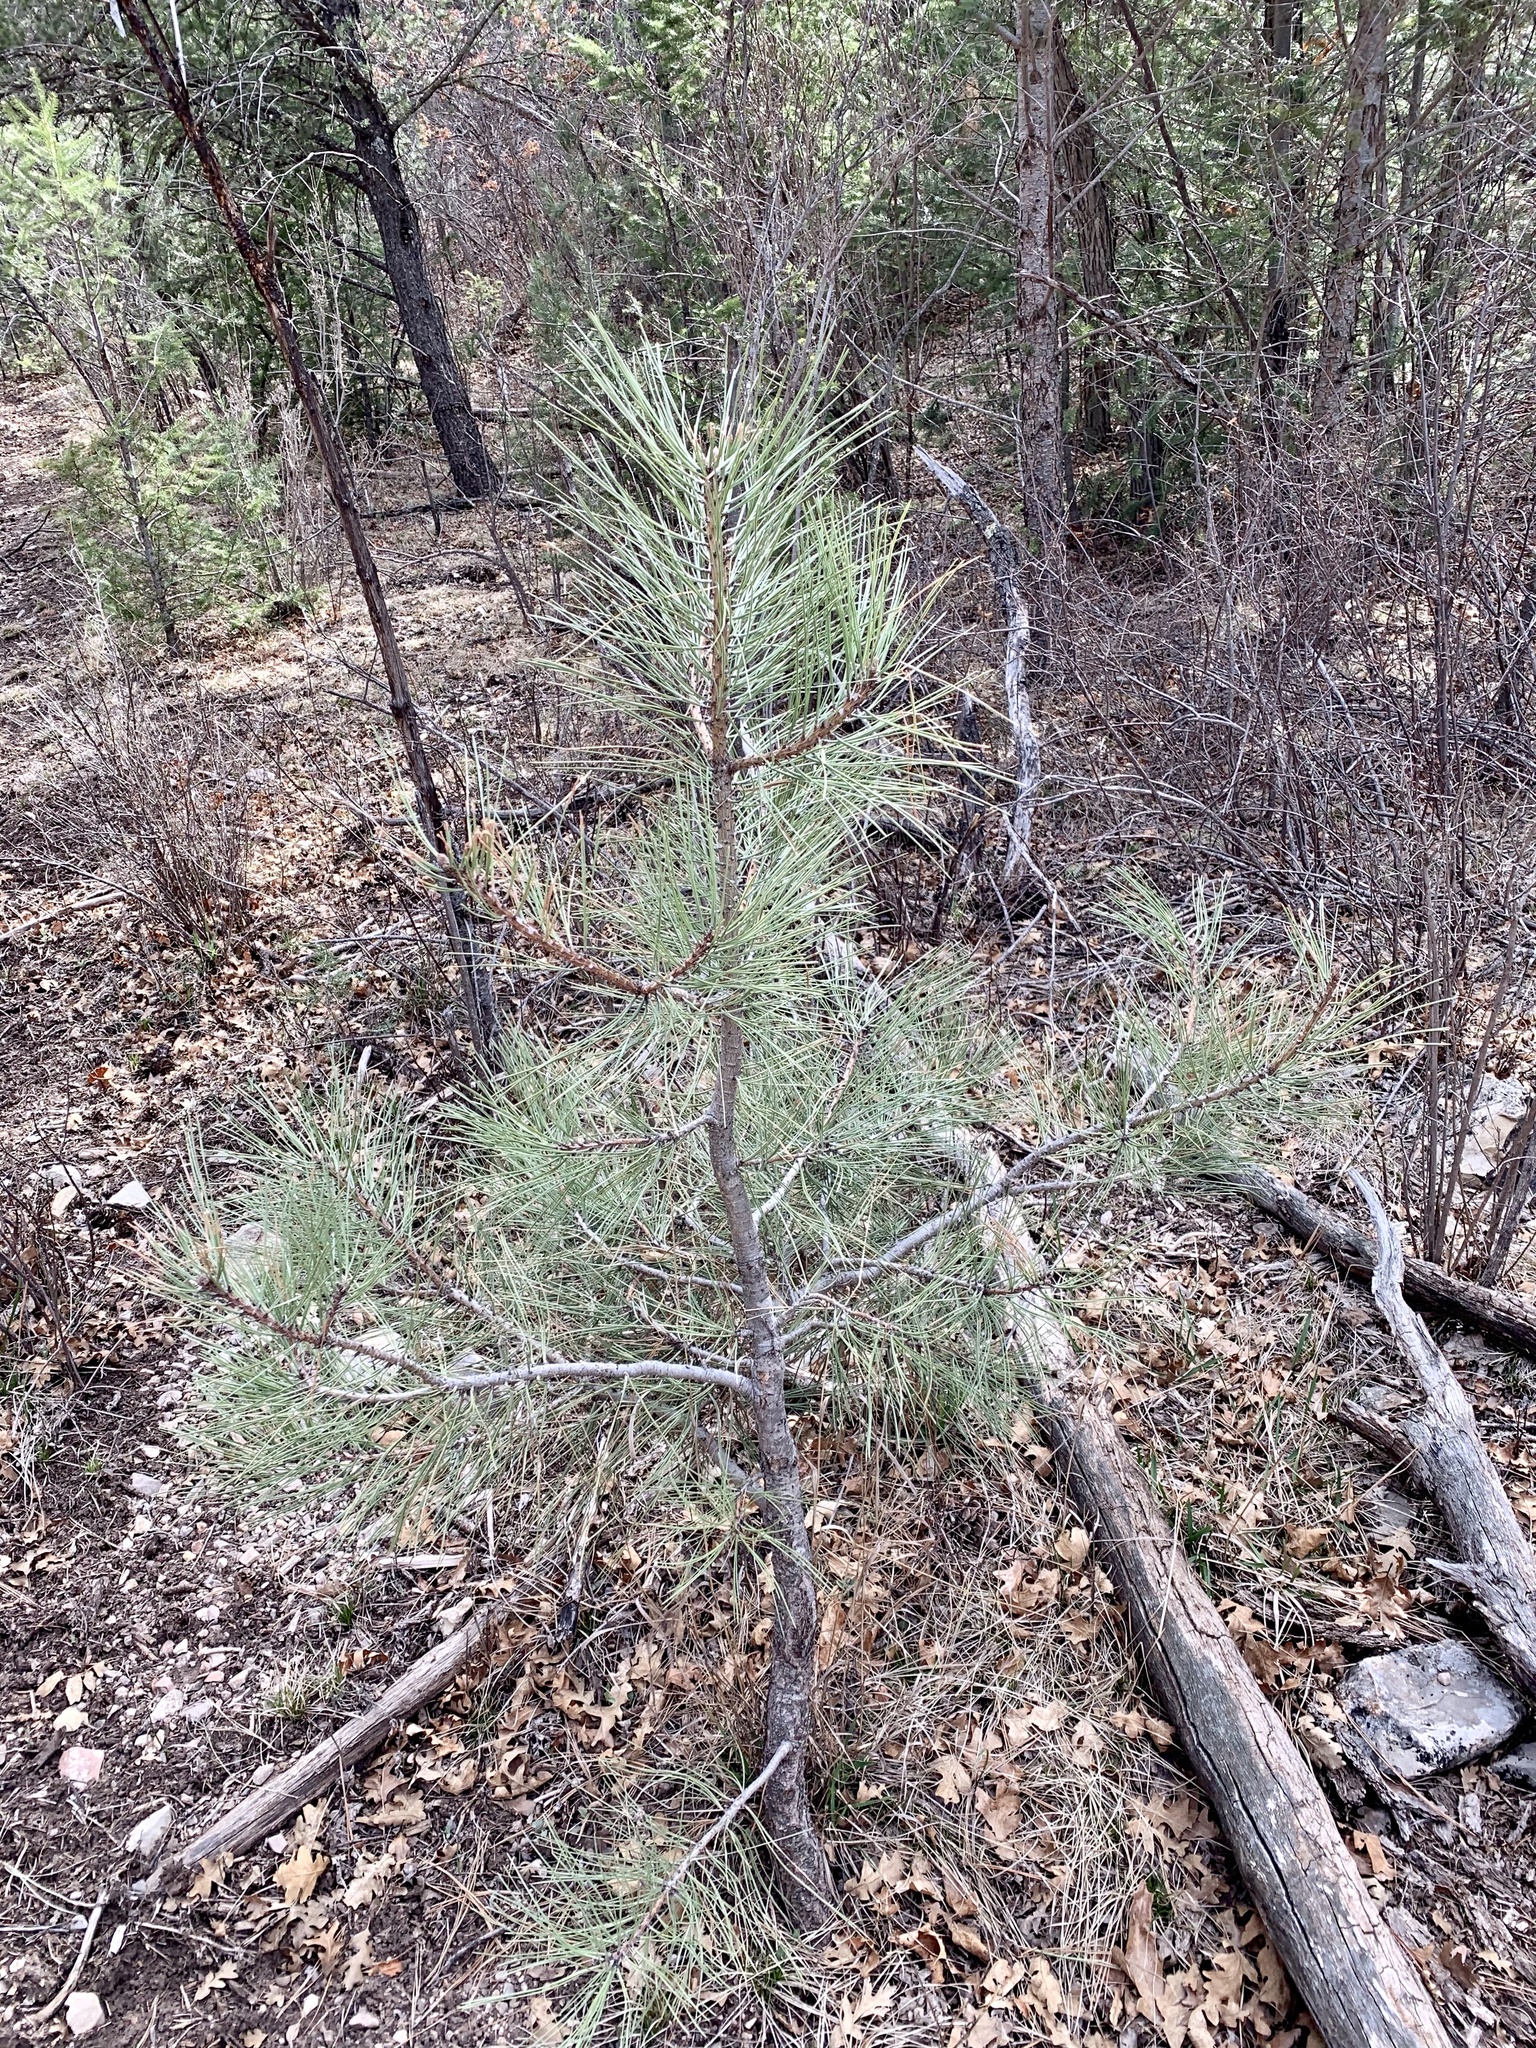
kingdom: Plantae
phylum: Tracheophyta
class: Pinopsida
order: Pinales
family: Pinaceae
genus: Pinus
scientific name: Pinus ponderosa
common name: Western yellow-pine
